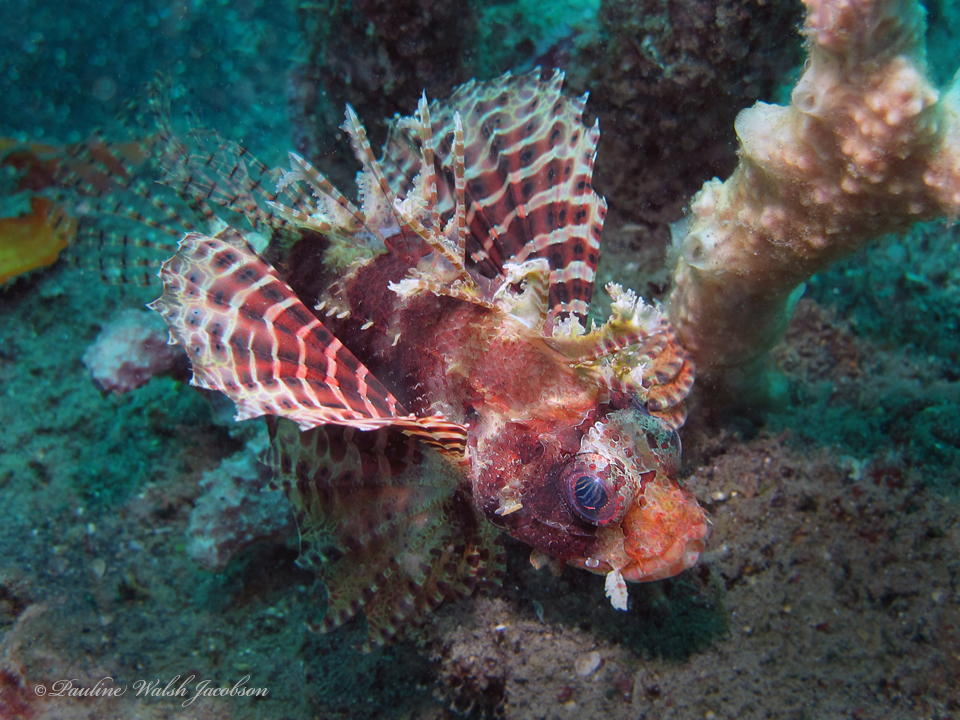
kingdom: Animalia
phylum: Chordata
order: Scorpaeniformes
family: Scorpaenidae
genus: Dendrochirus
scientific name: Dendrochirus brachypterus
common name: Shortfin turkeyfish
